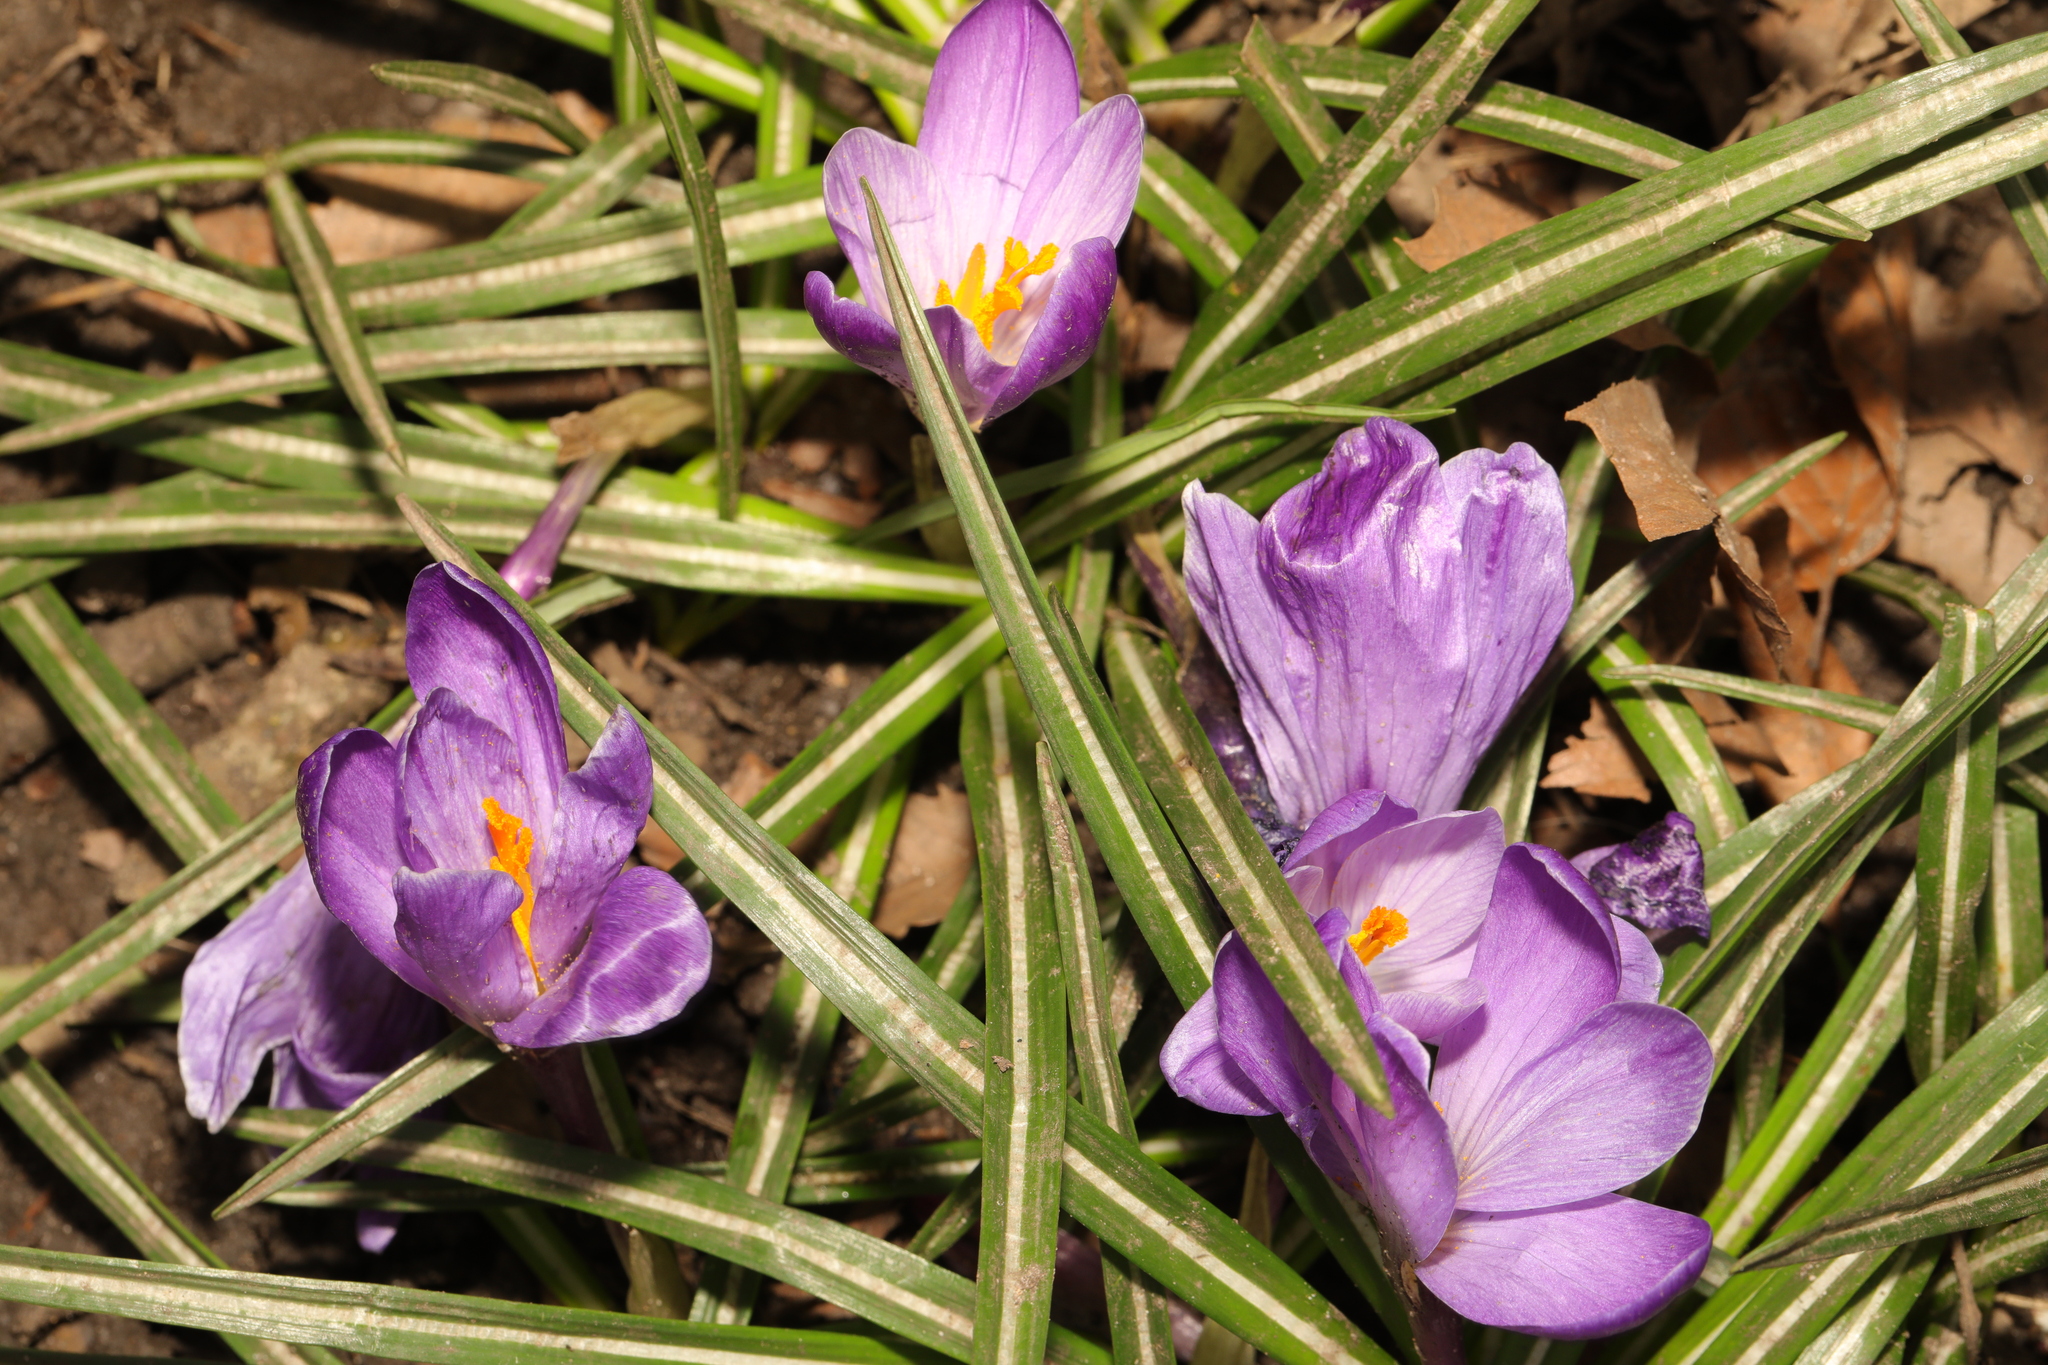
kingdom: Plantae
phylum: Tracheophyta
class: Liliopsida
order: Asparagales
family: Iridaceae
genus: Crocus
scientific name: Crocus neapolitanus
